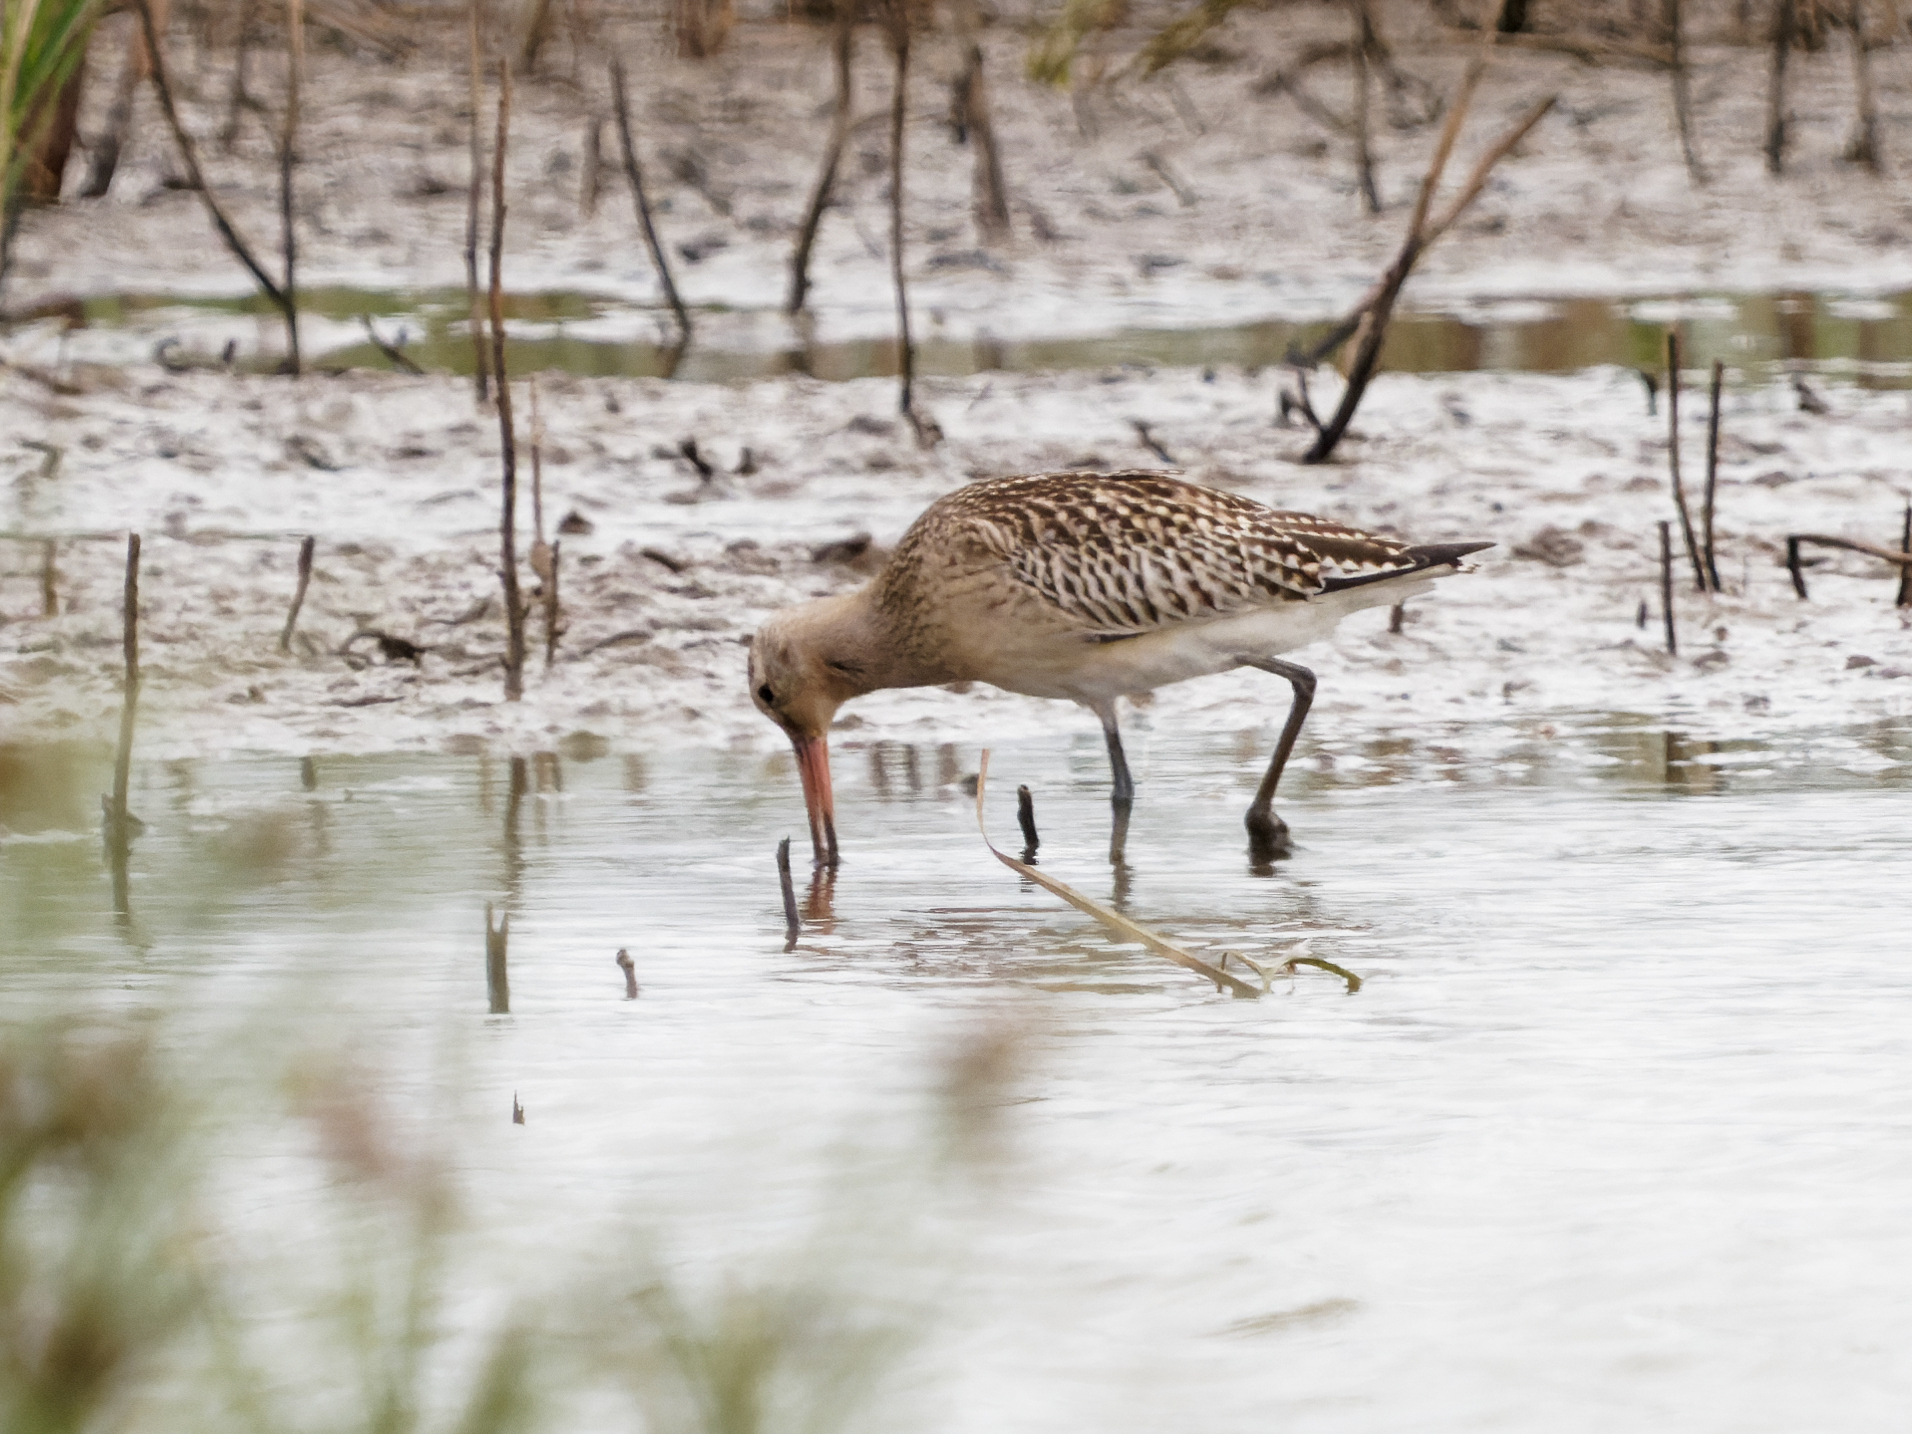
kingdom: Animalia
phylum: Chordata
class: Aves
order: Charadriiformes
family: Scolopacidae
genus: Limosa
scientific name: Limosa lapponica
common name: Bar-tailed godwit
